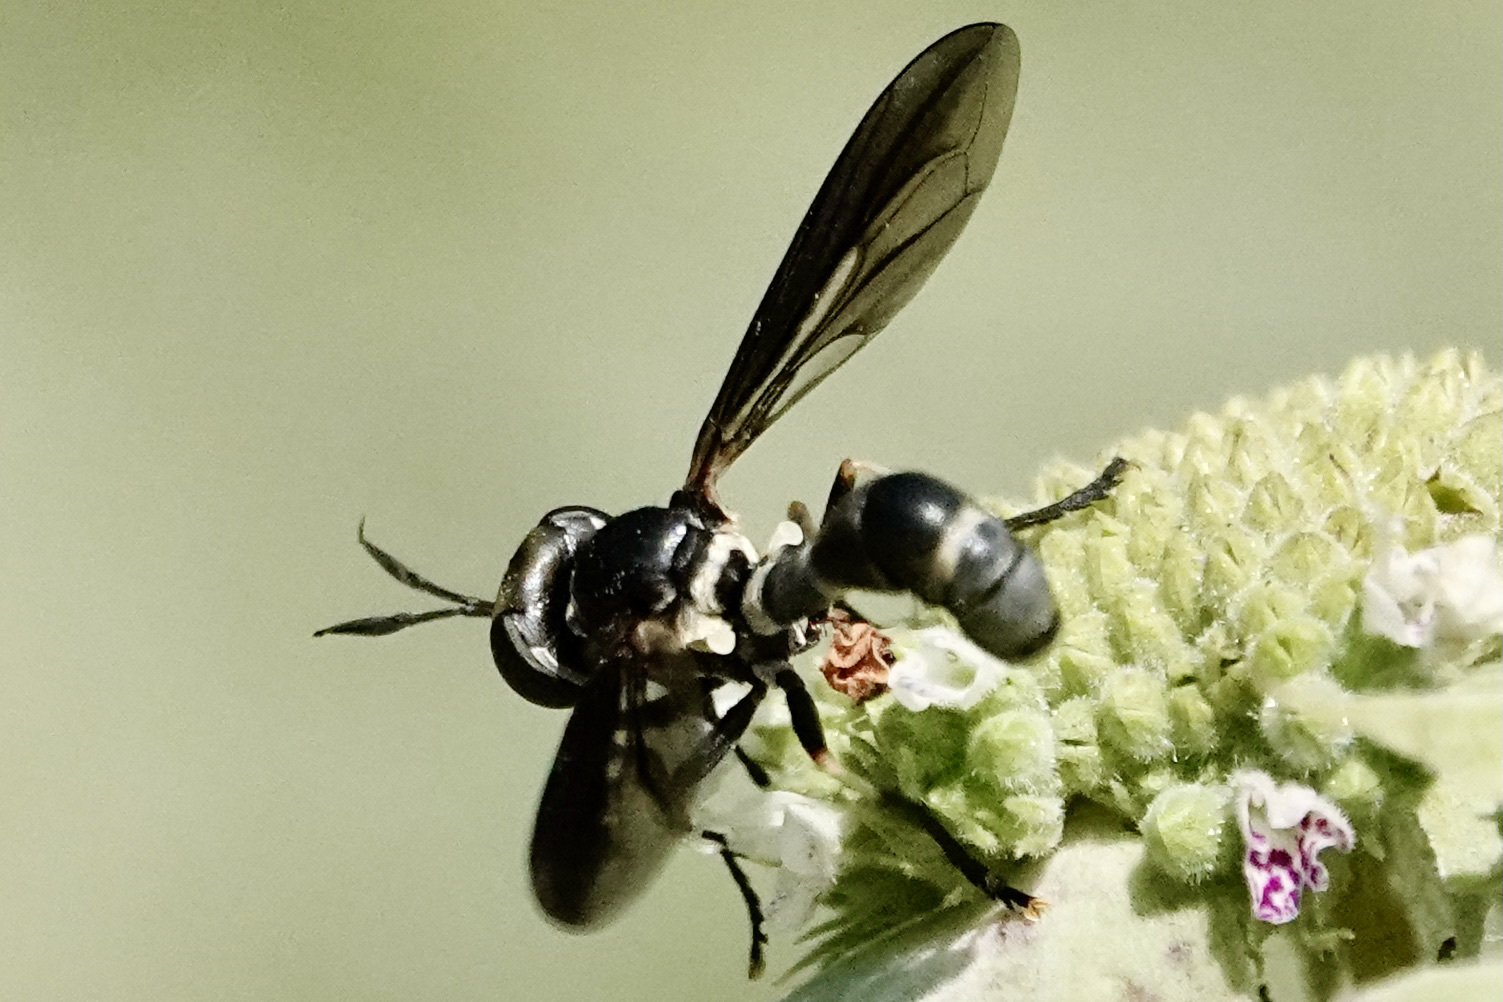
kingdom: Animalia
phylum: Arthropoda
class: Insecta
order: Diptera
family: Conopidae
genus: Physoconops
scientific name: Physoconops brachyrhynchus
